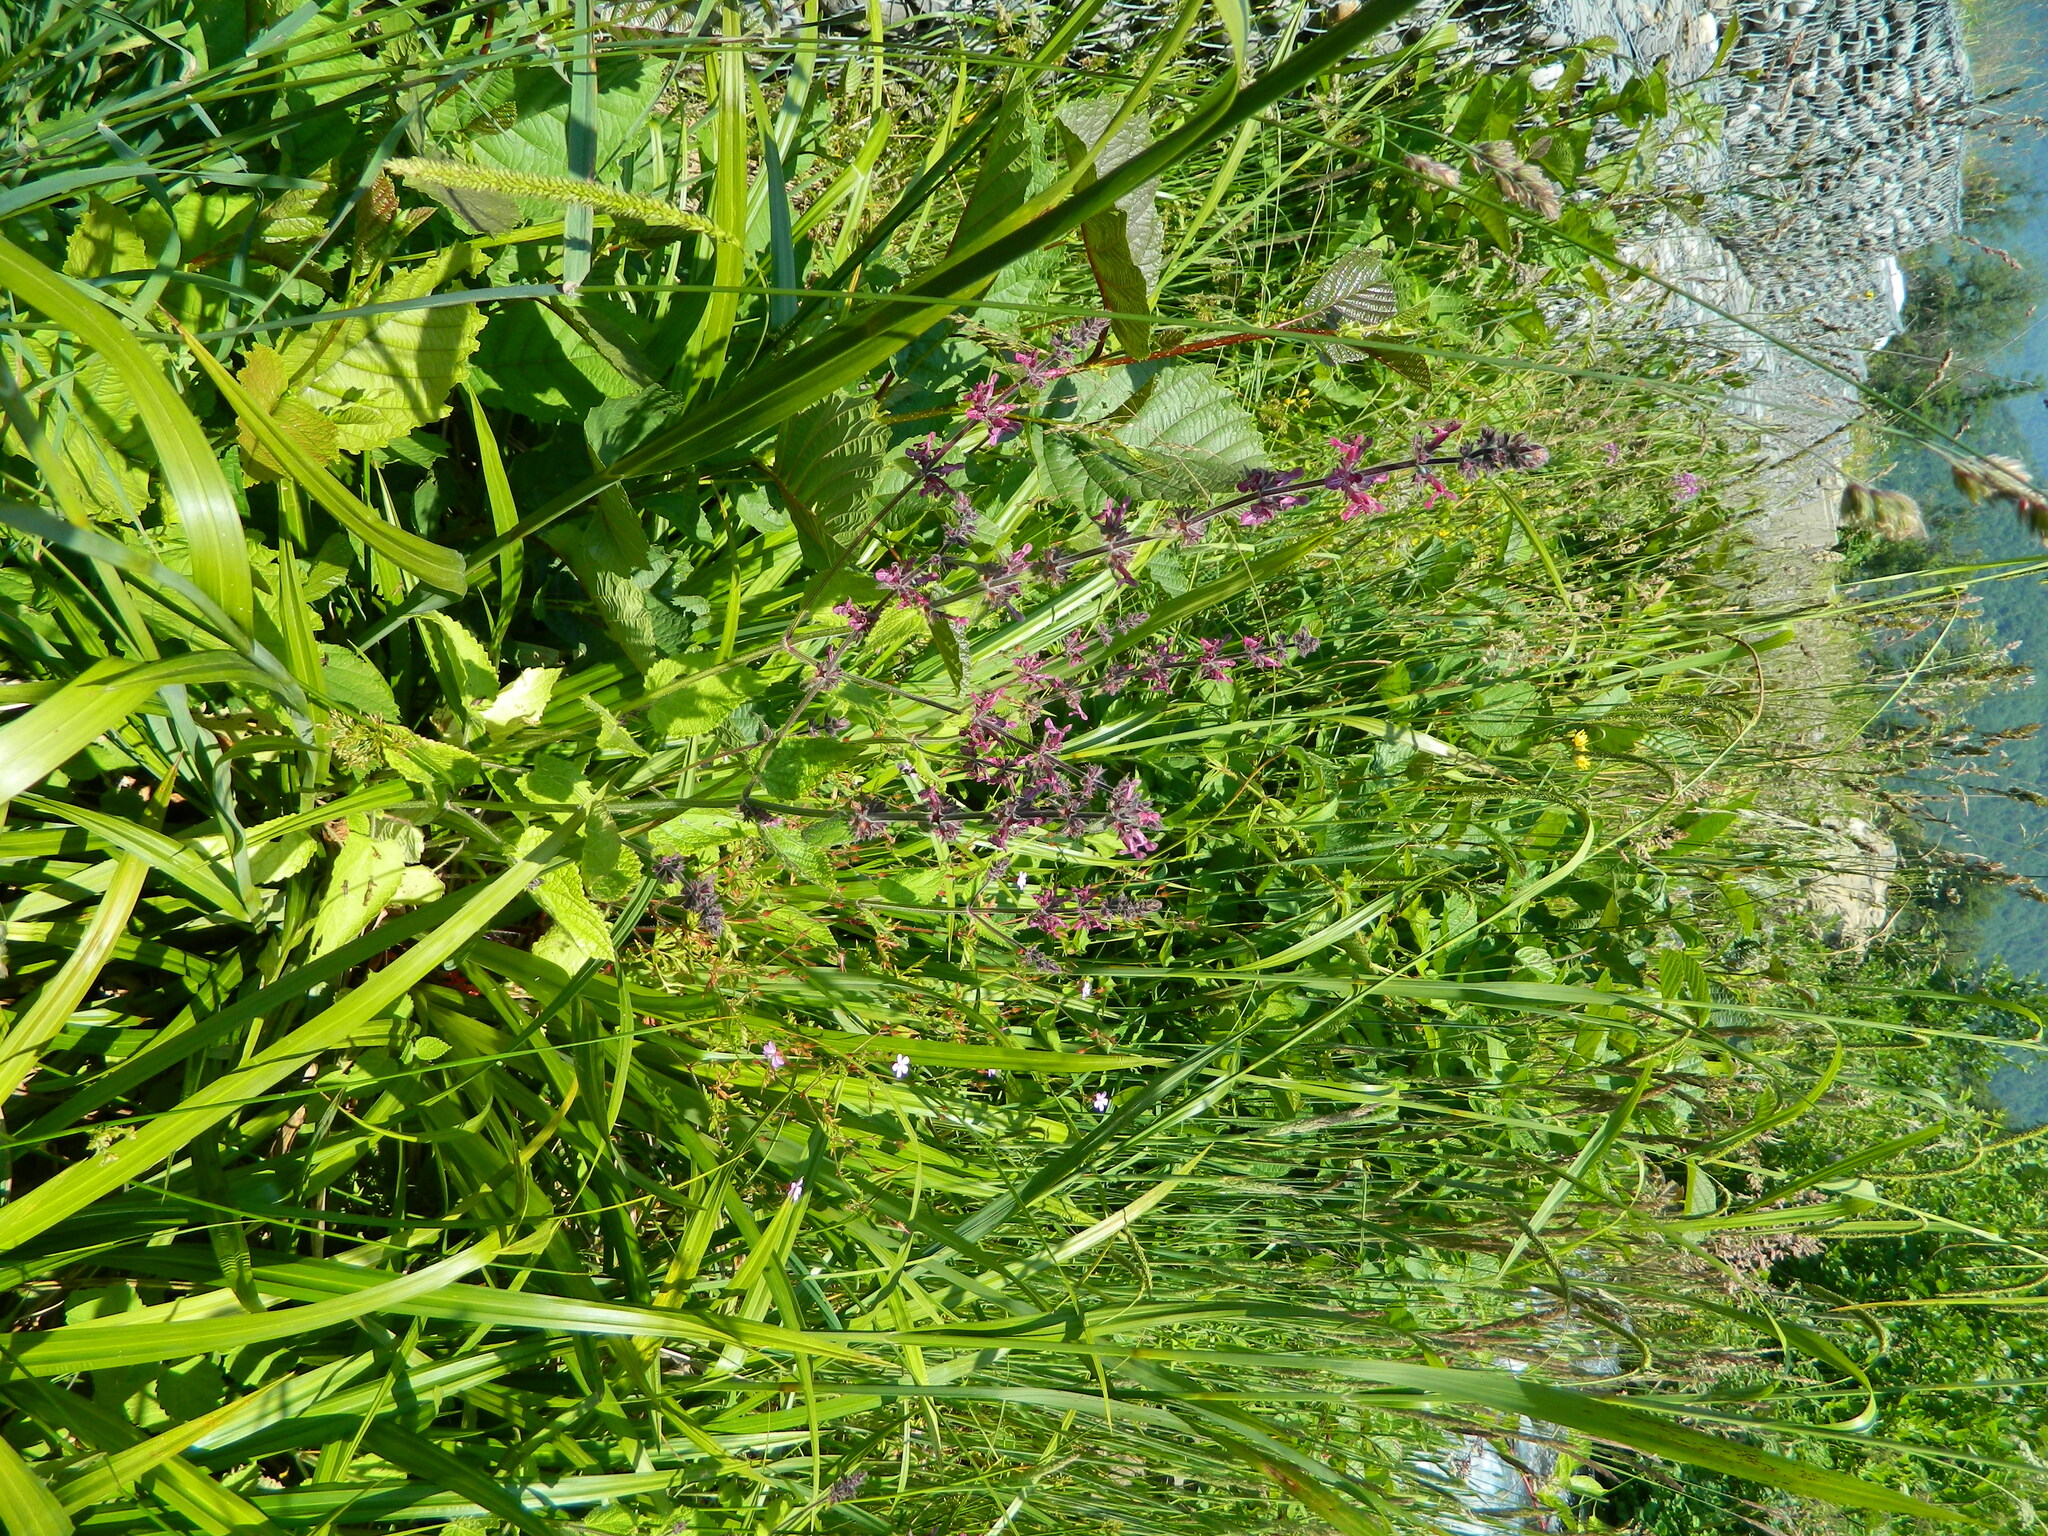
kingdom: Plantae
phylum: Tracheophyta
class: Magnoliopsida
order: Lamiales
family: Lamiaceae
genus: Stachys
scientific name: Stachys sylvatica
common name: Hedge woundwort
